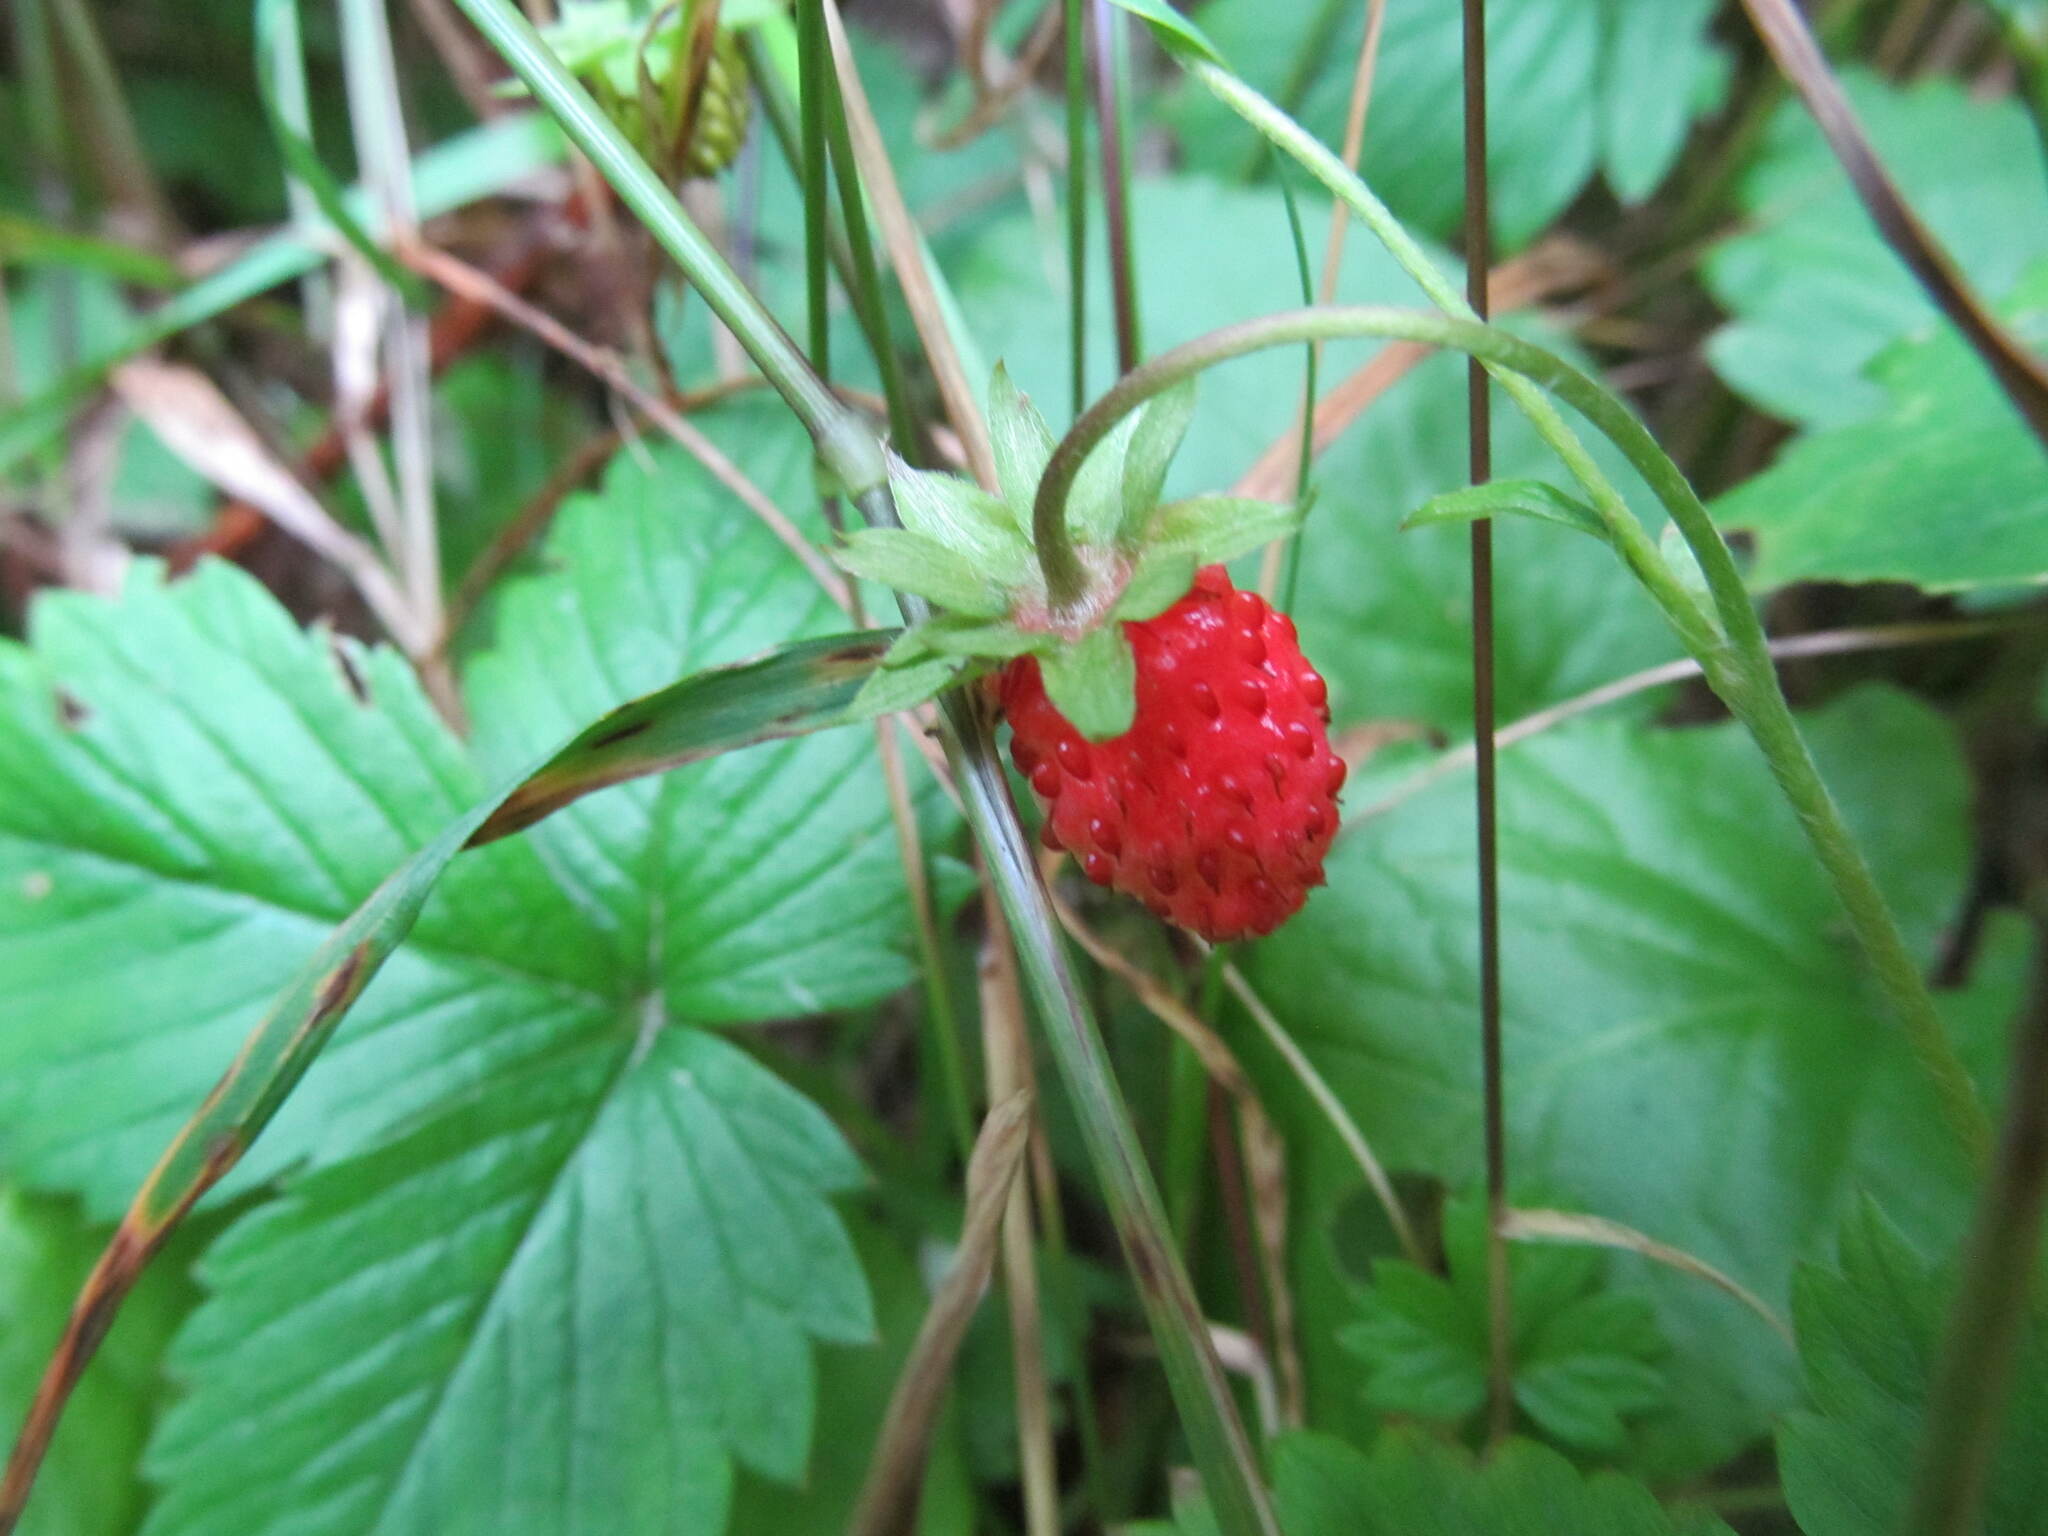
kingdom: Plantae
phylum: Tracheophyta
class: Magnoliopsida
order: Rosales
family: Rosaceae
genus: Fragaria
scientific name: Fragaria vesca
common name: Wild strawberry
